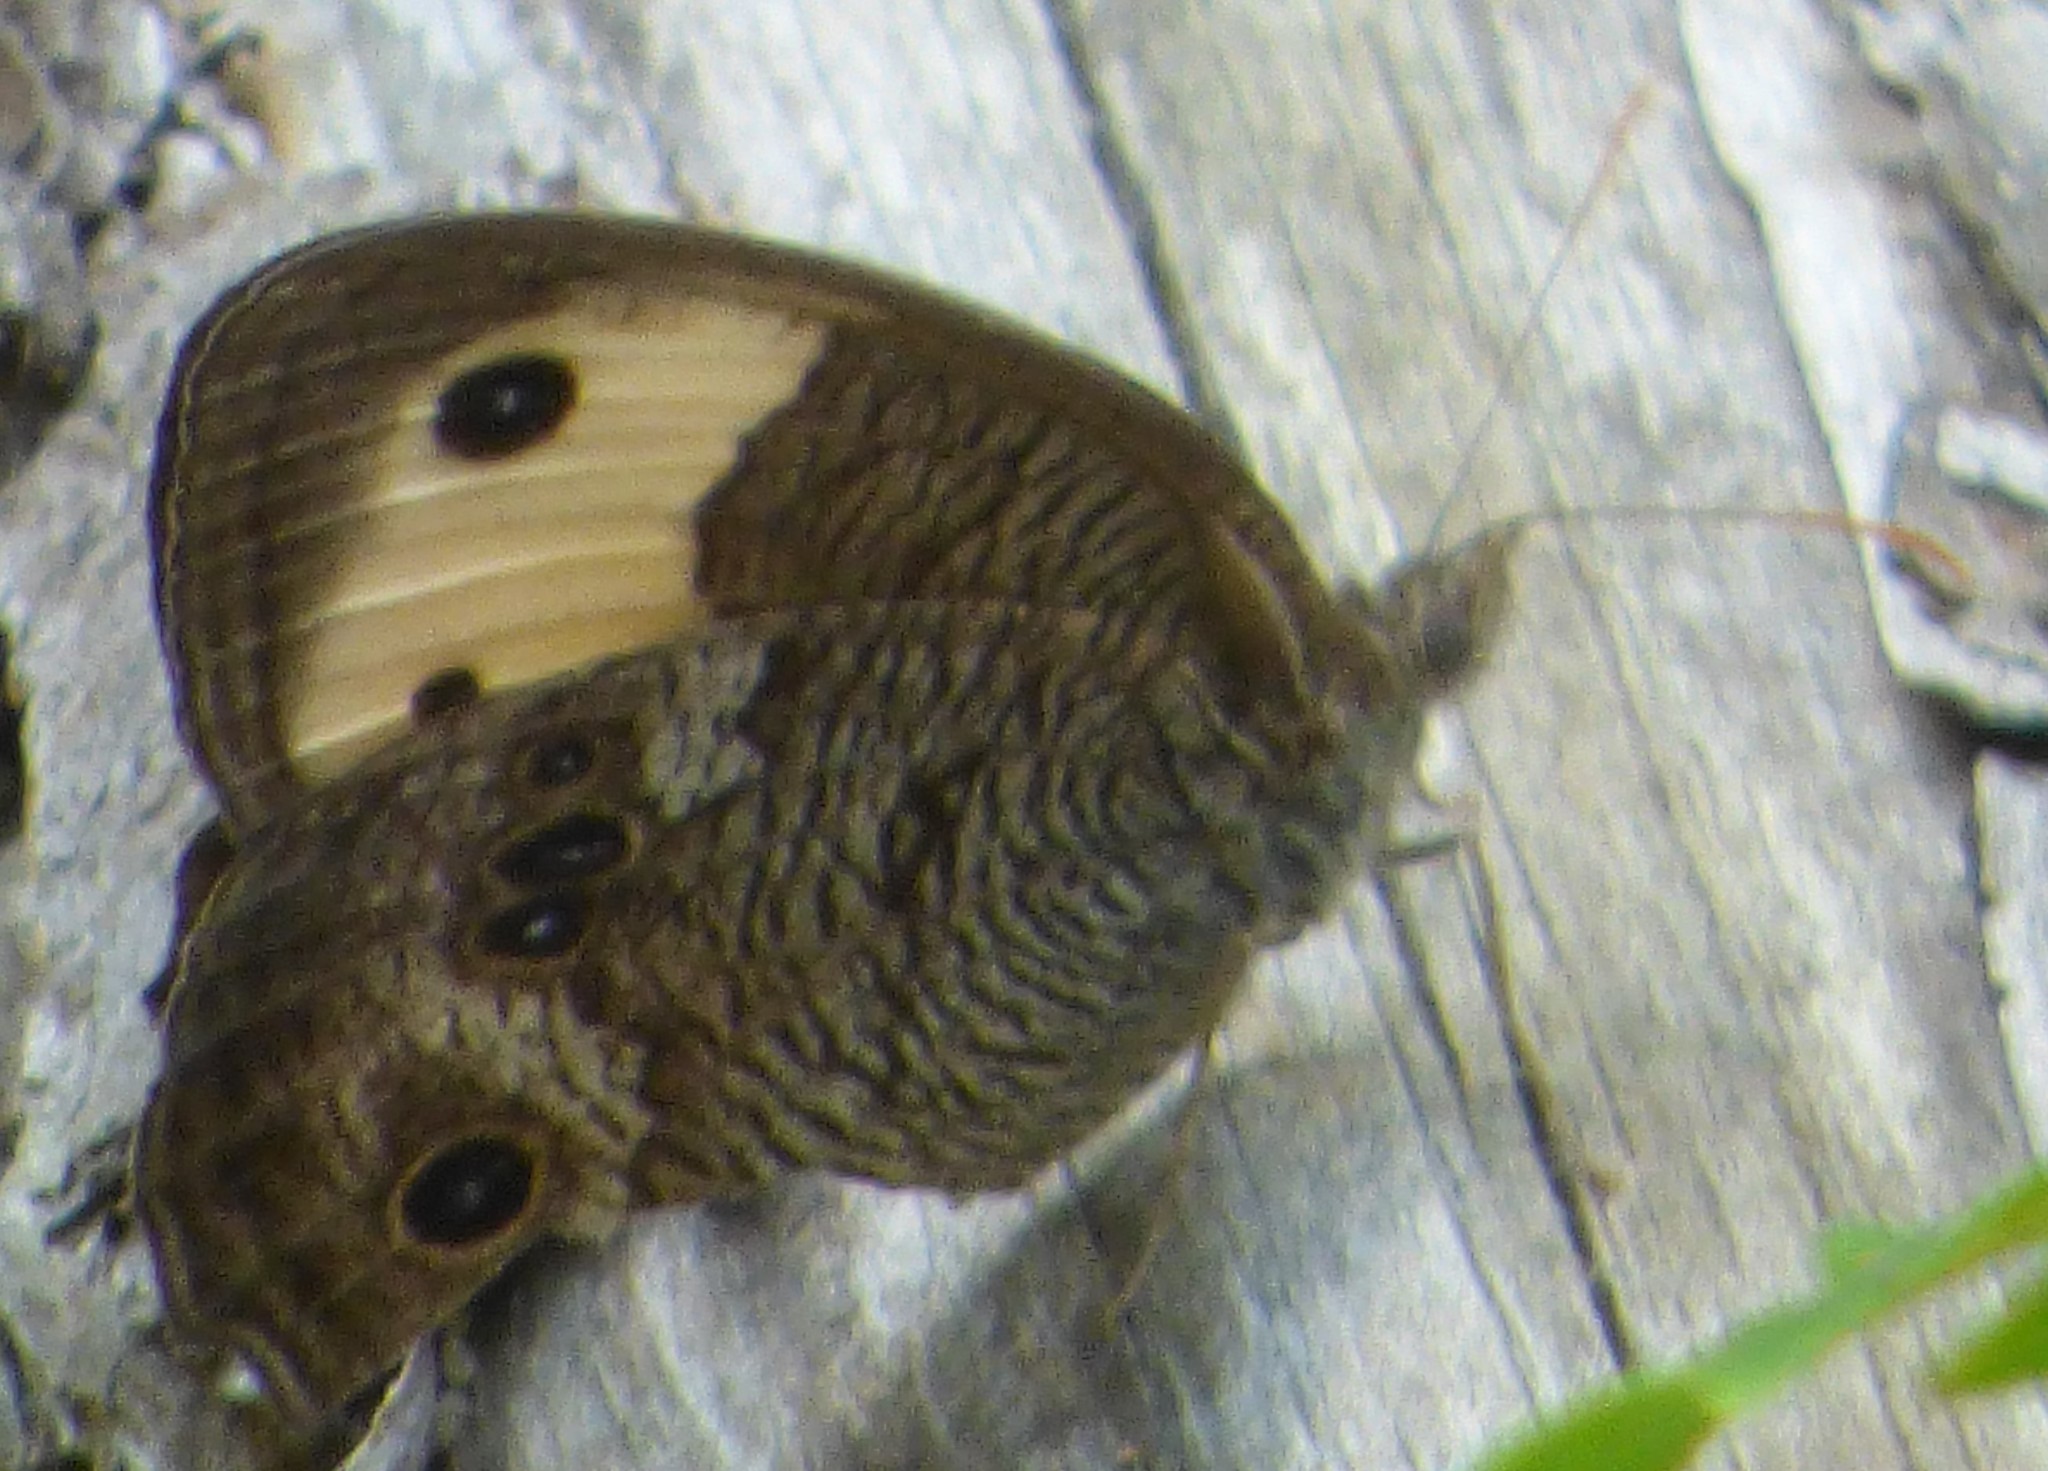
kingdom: Animalia
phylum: Arthropoda
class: Insecta
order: Lepidoptera
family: Nymphalidae
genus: Cercyonis
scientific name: Cercyonis pegala
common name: Common wood-nymph
